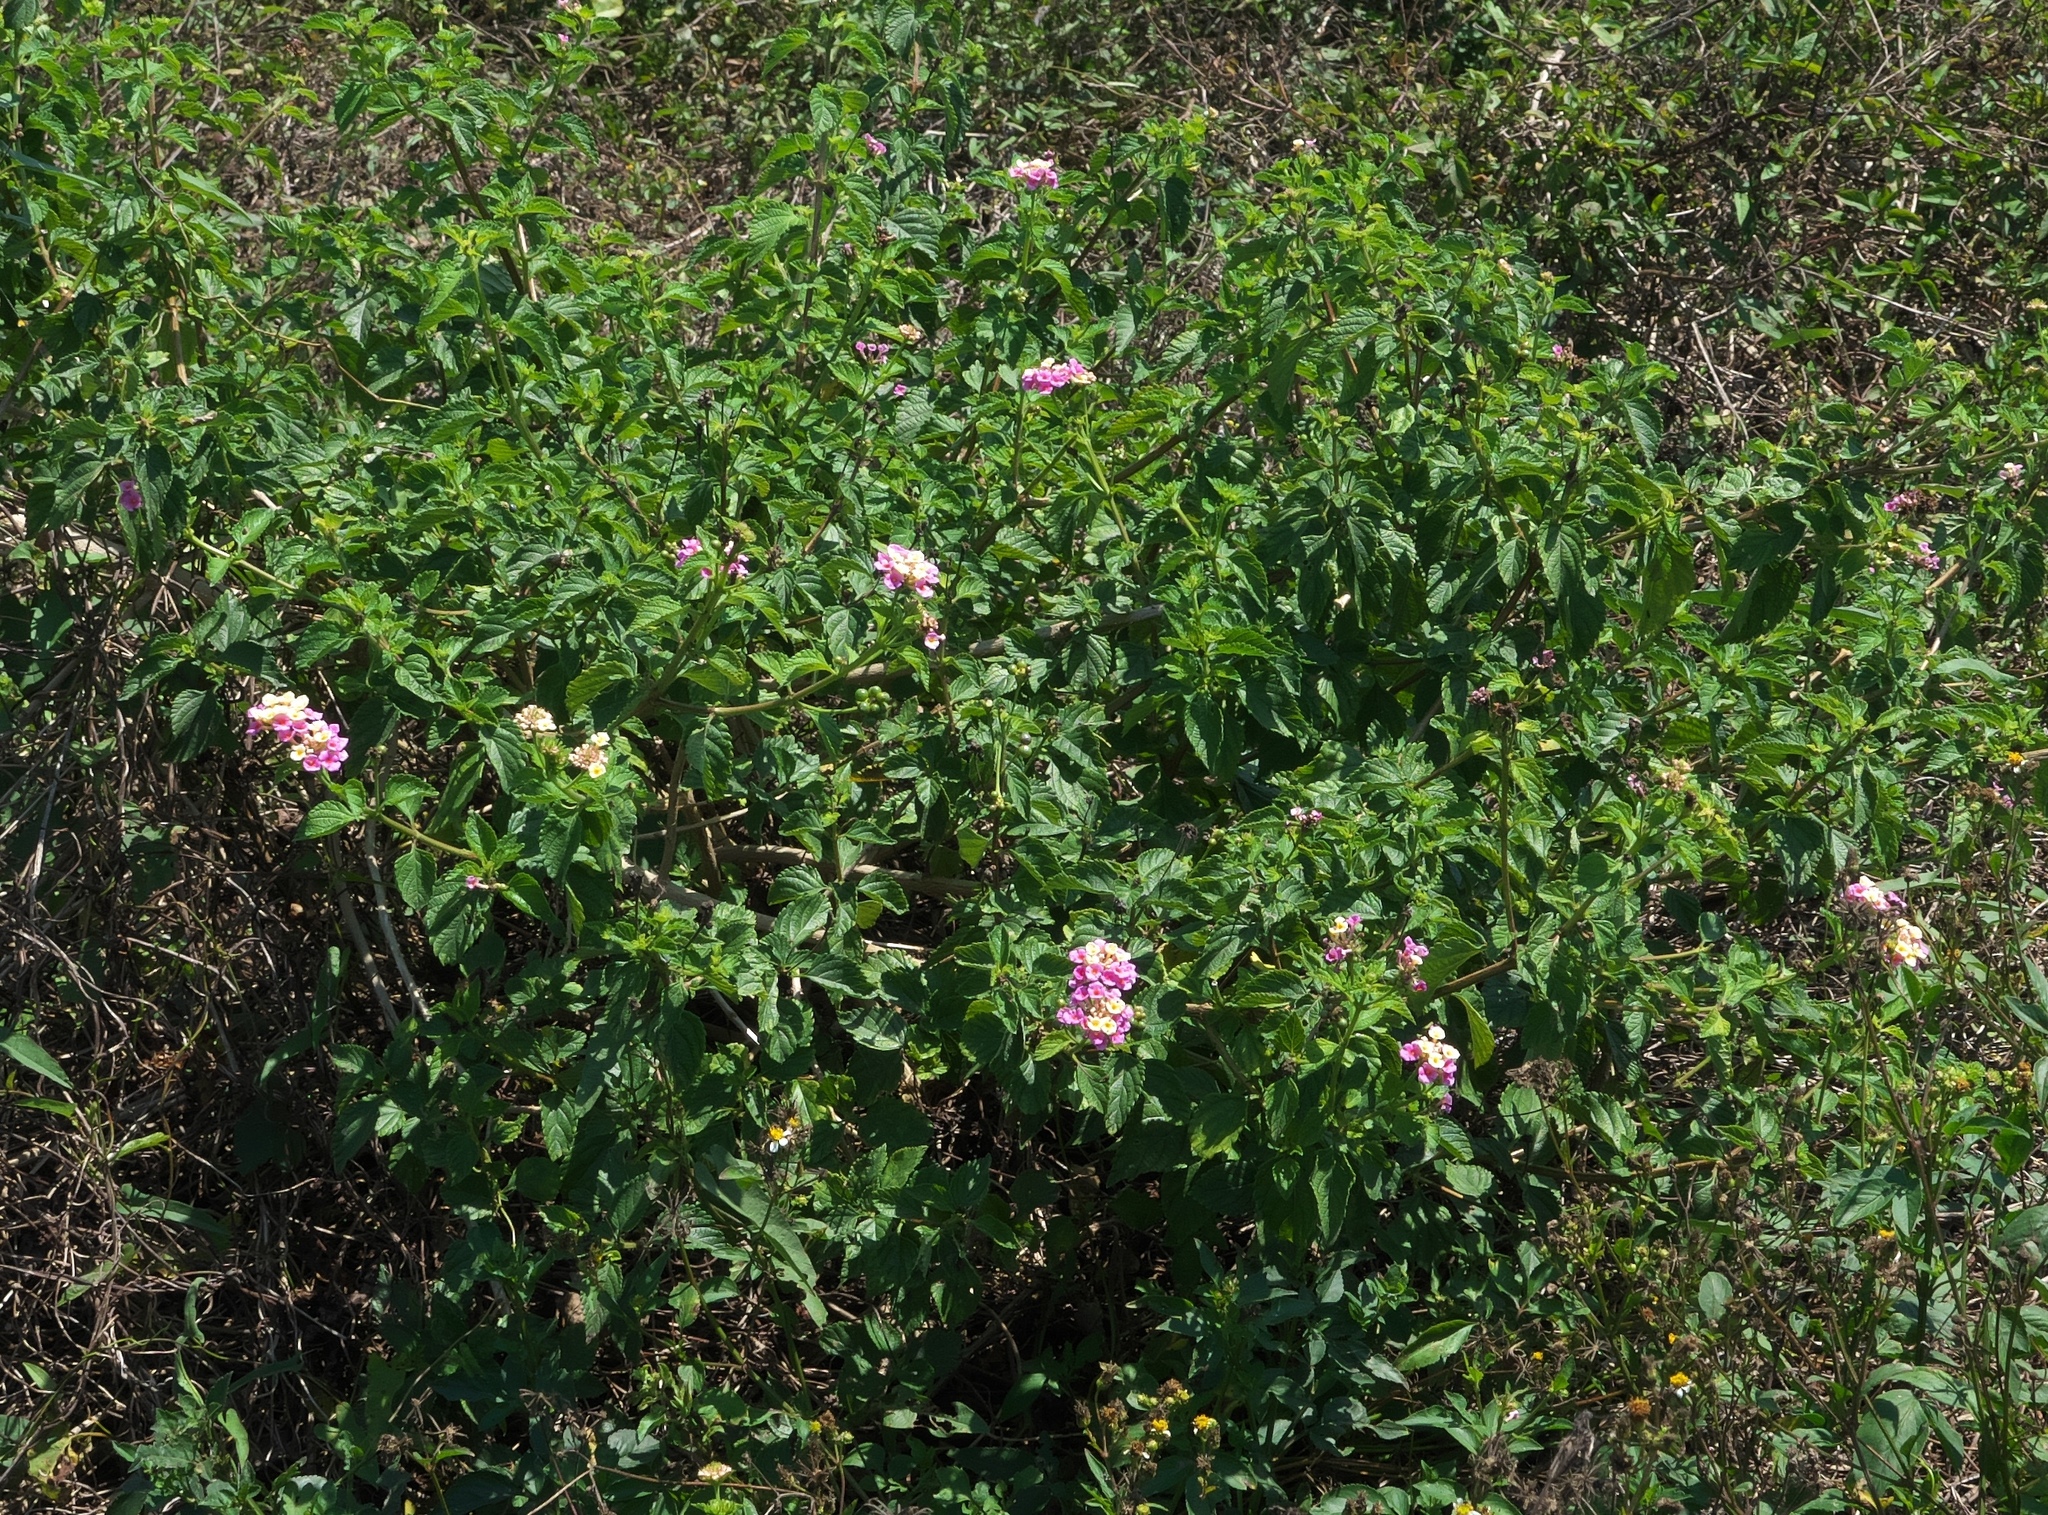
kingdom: Plantae
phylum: Tracheophyta
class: Magnoliopsida
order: Lamiales
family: Verbenaceae
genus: Lantana
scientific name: Lantana strigocamara
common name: Lantana
